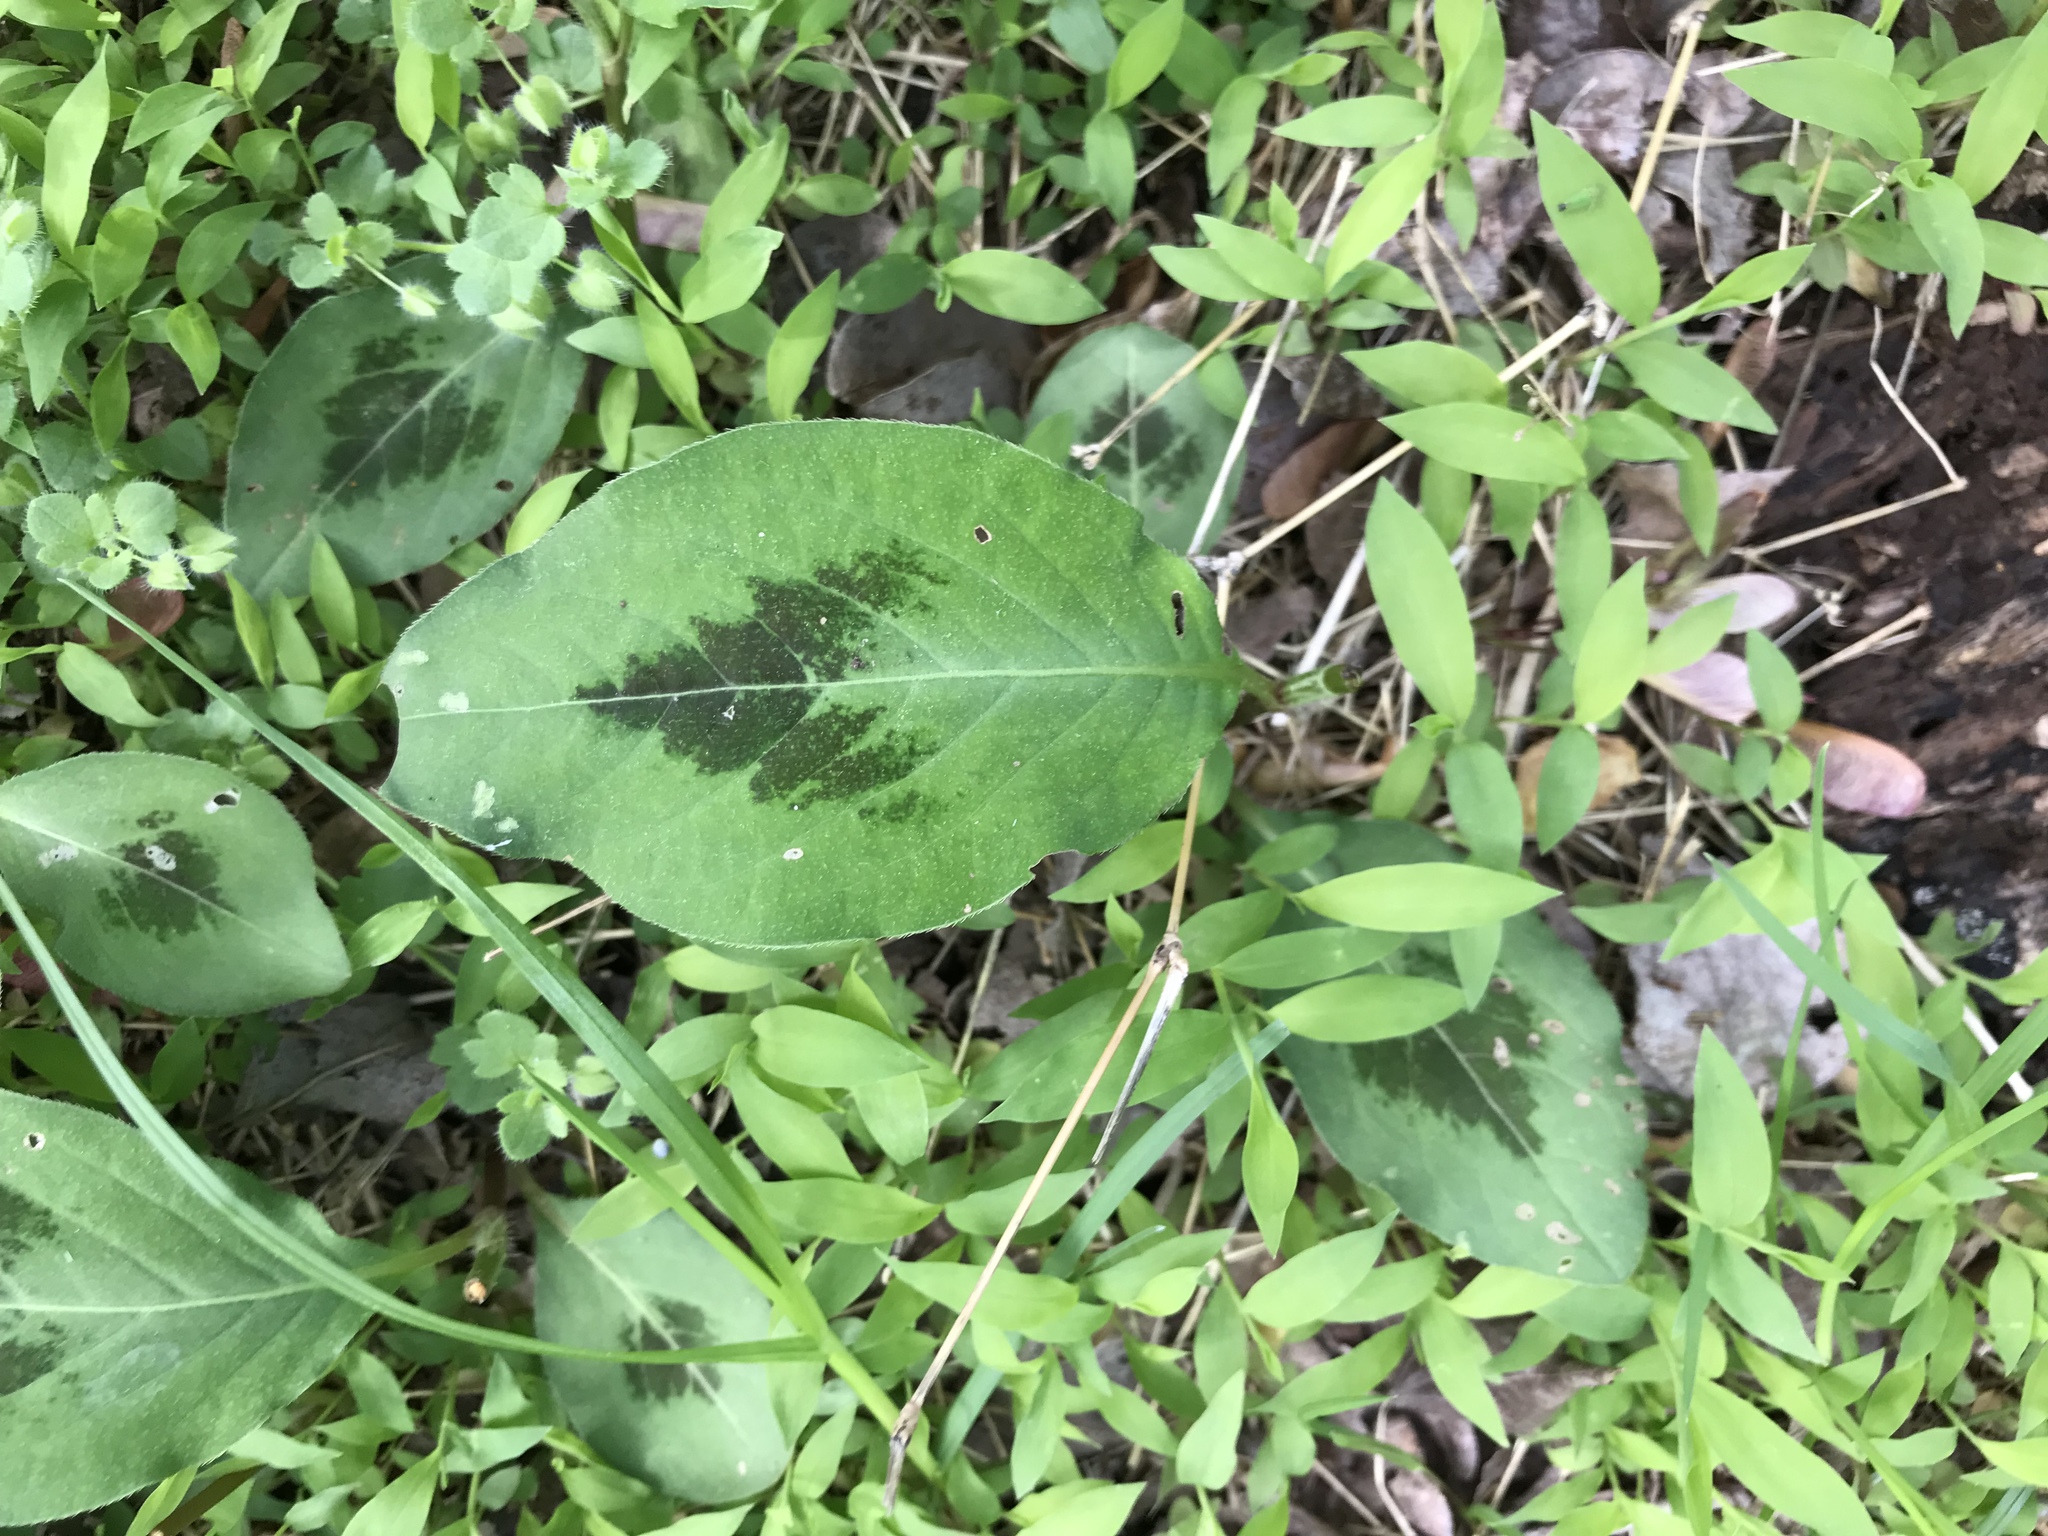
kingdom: Plantae
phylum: Tracheophyta
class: Magnoliopsida
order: Caryophyllales
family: Polygonaceae
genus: Persicaria
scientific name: Persicaria virginiana
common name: Jumpseed
